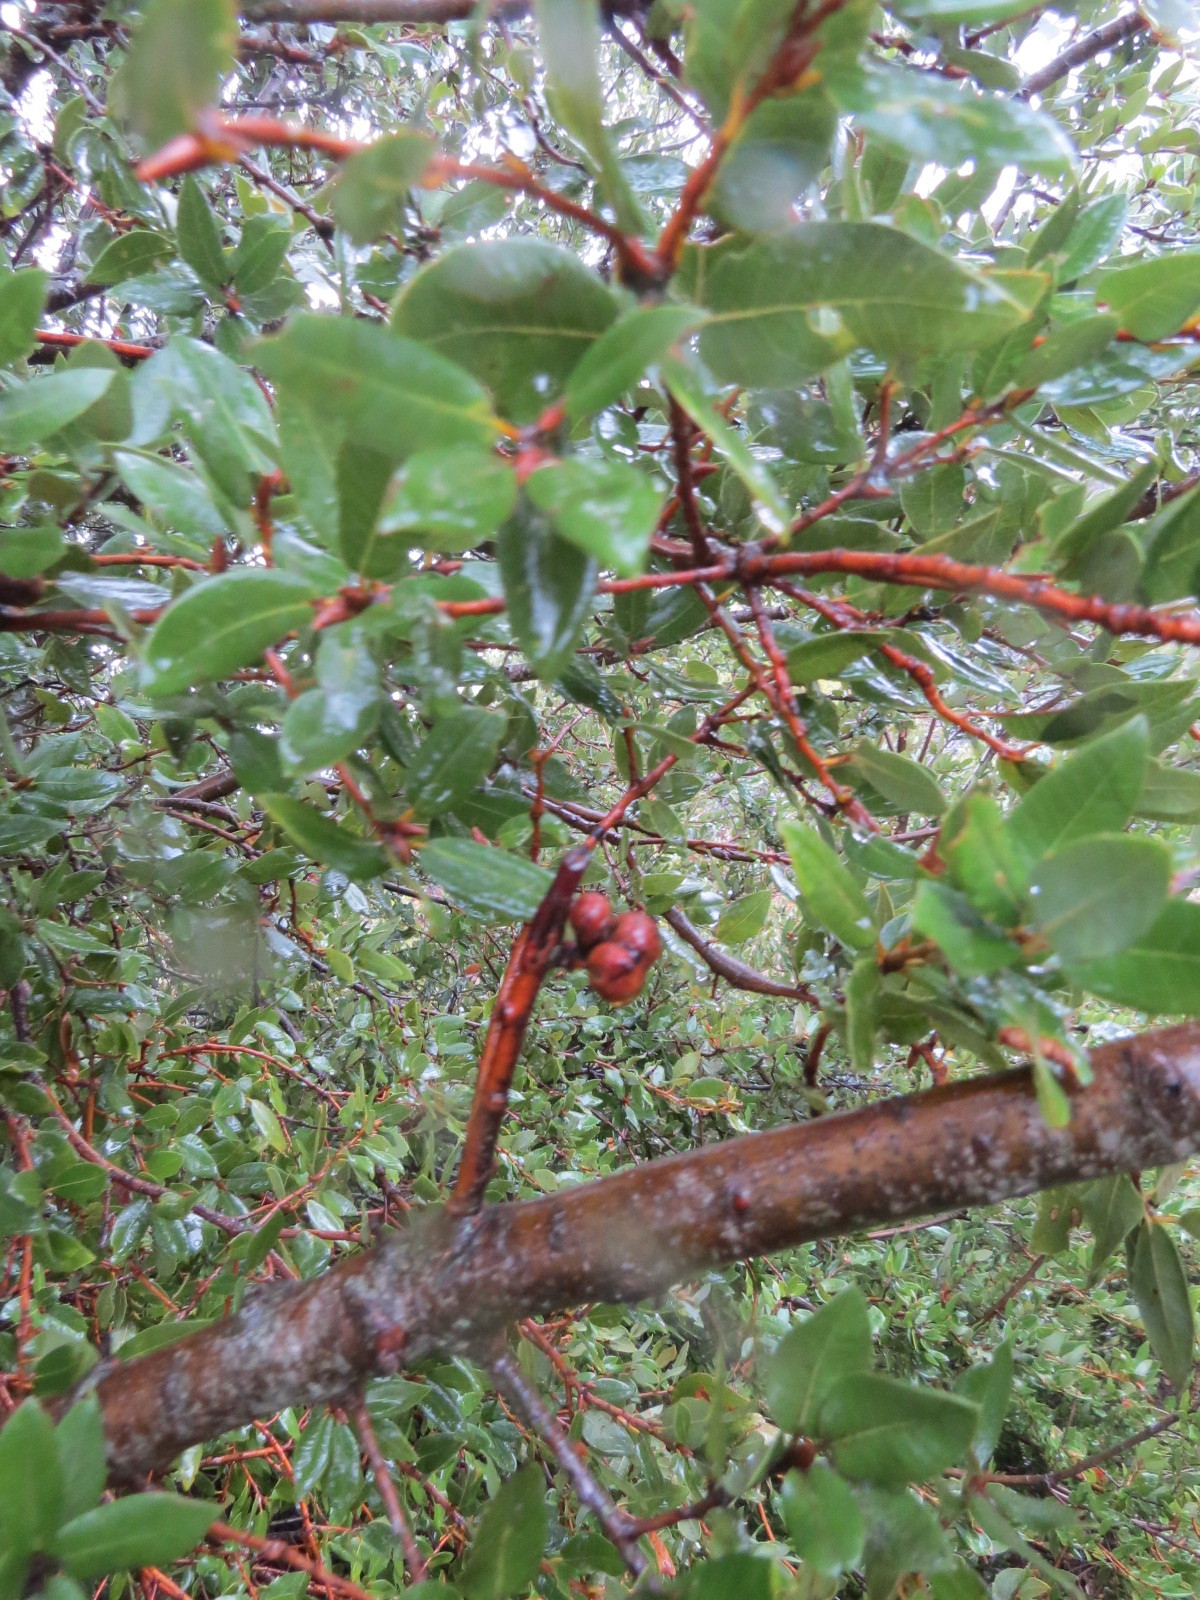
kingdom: Animalia
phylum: Arthropoda
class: Insecta
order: Hymenoptera
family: Cynipidae
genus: Heteroecus
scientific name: Heteroecus
